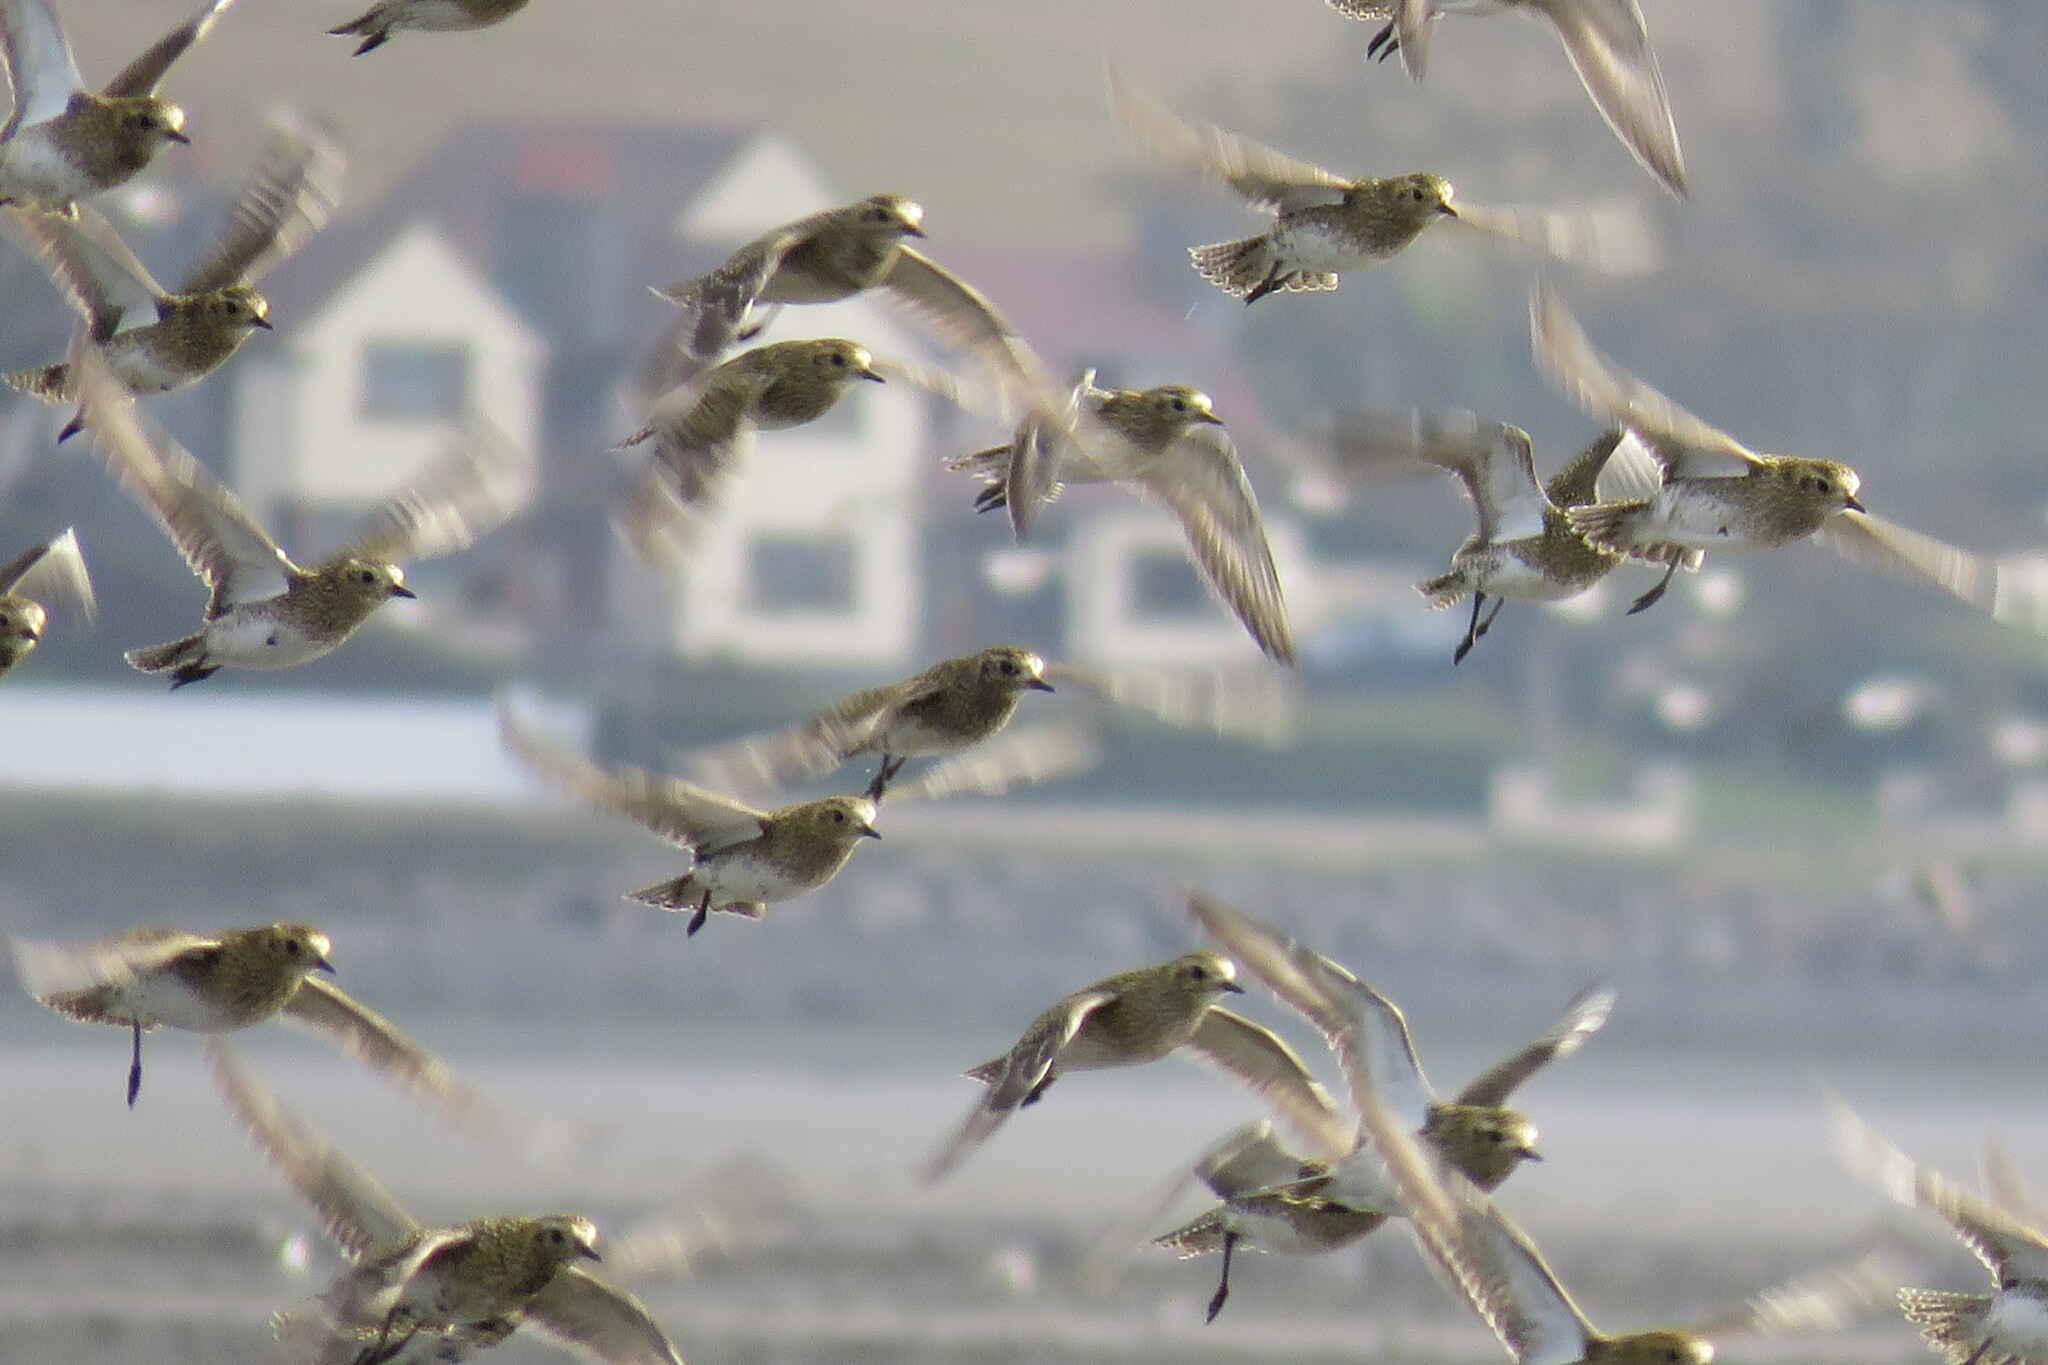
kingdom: Animalia
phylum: Chordata
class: Aves
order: Charadriiformes
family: Charadriidae
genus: Pluvialis
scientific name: Pluvialis apricaria
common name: European golden plover
